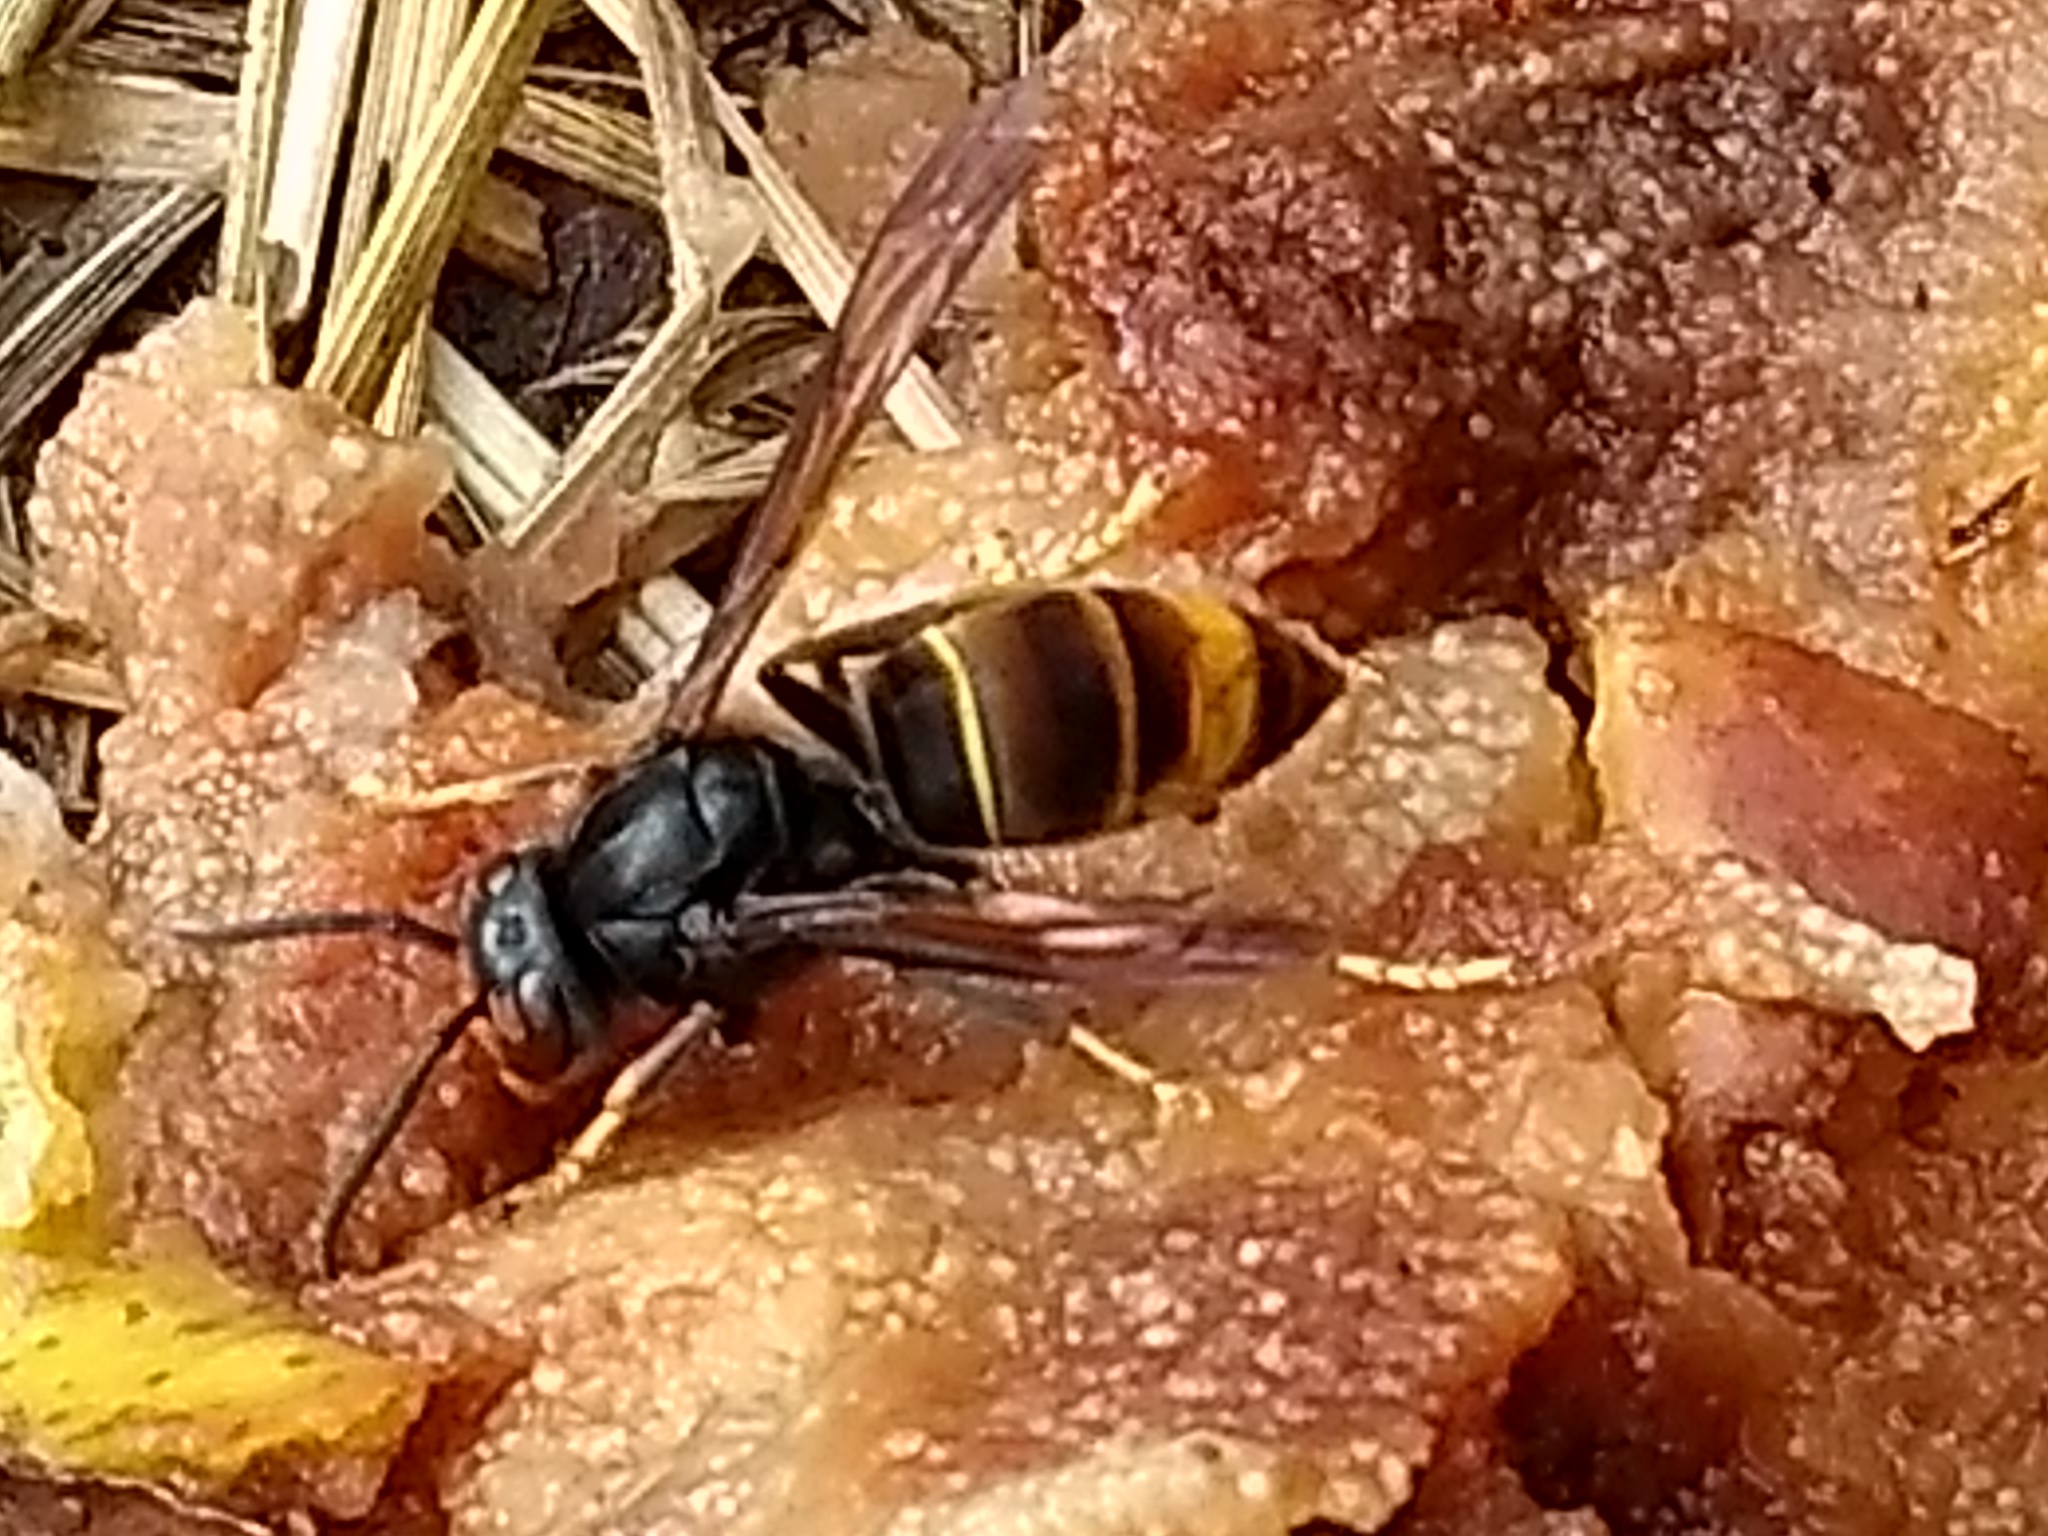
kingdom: Animalia
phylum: Arthropoda
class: Insecta
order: Hymenoptera
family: Vespidae
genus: Vespa
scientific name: Vespa velutina
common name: Asian hornet
